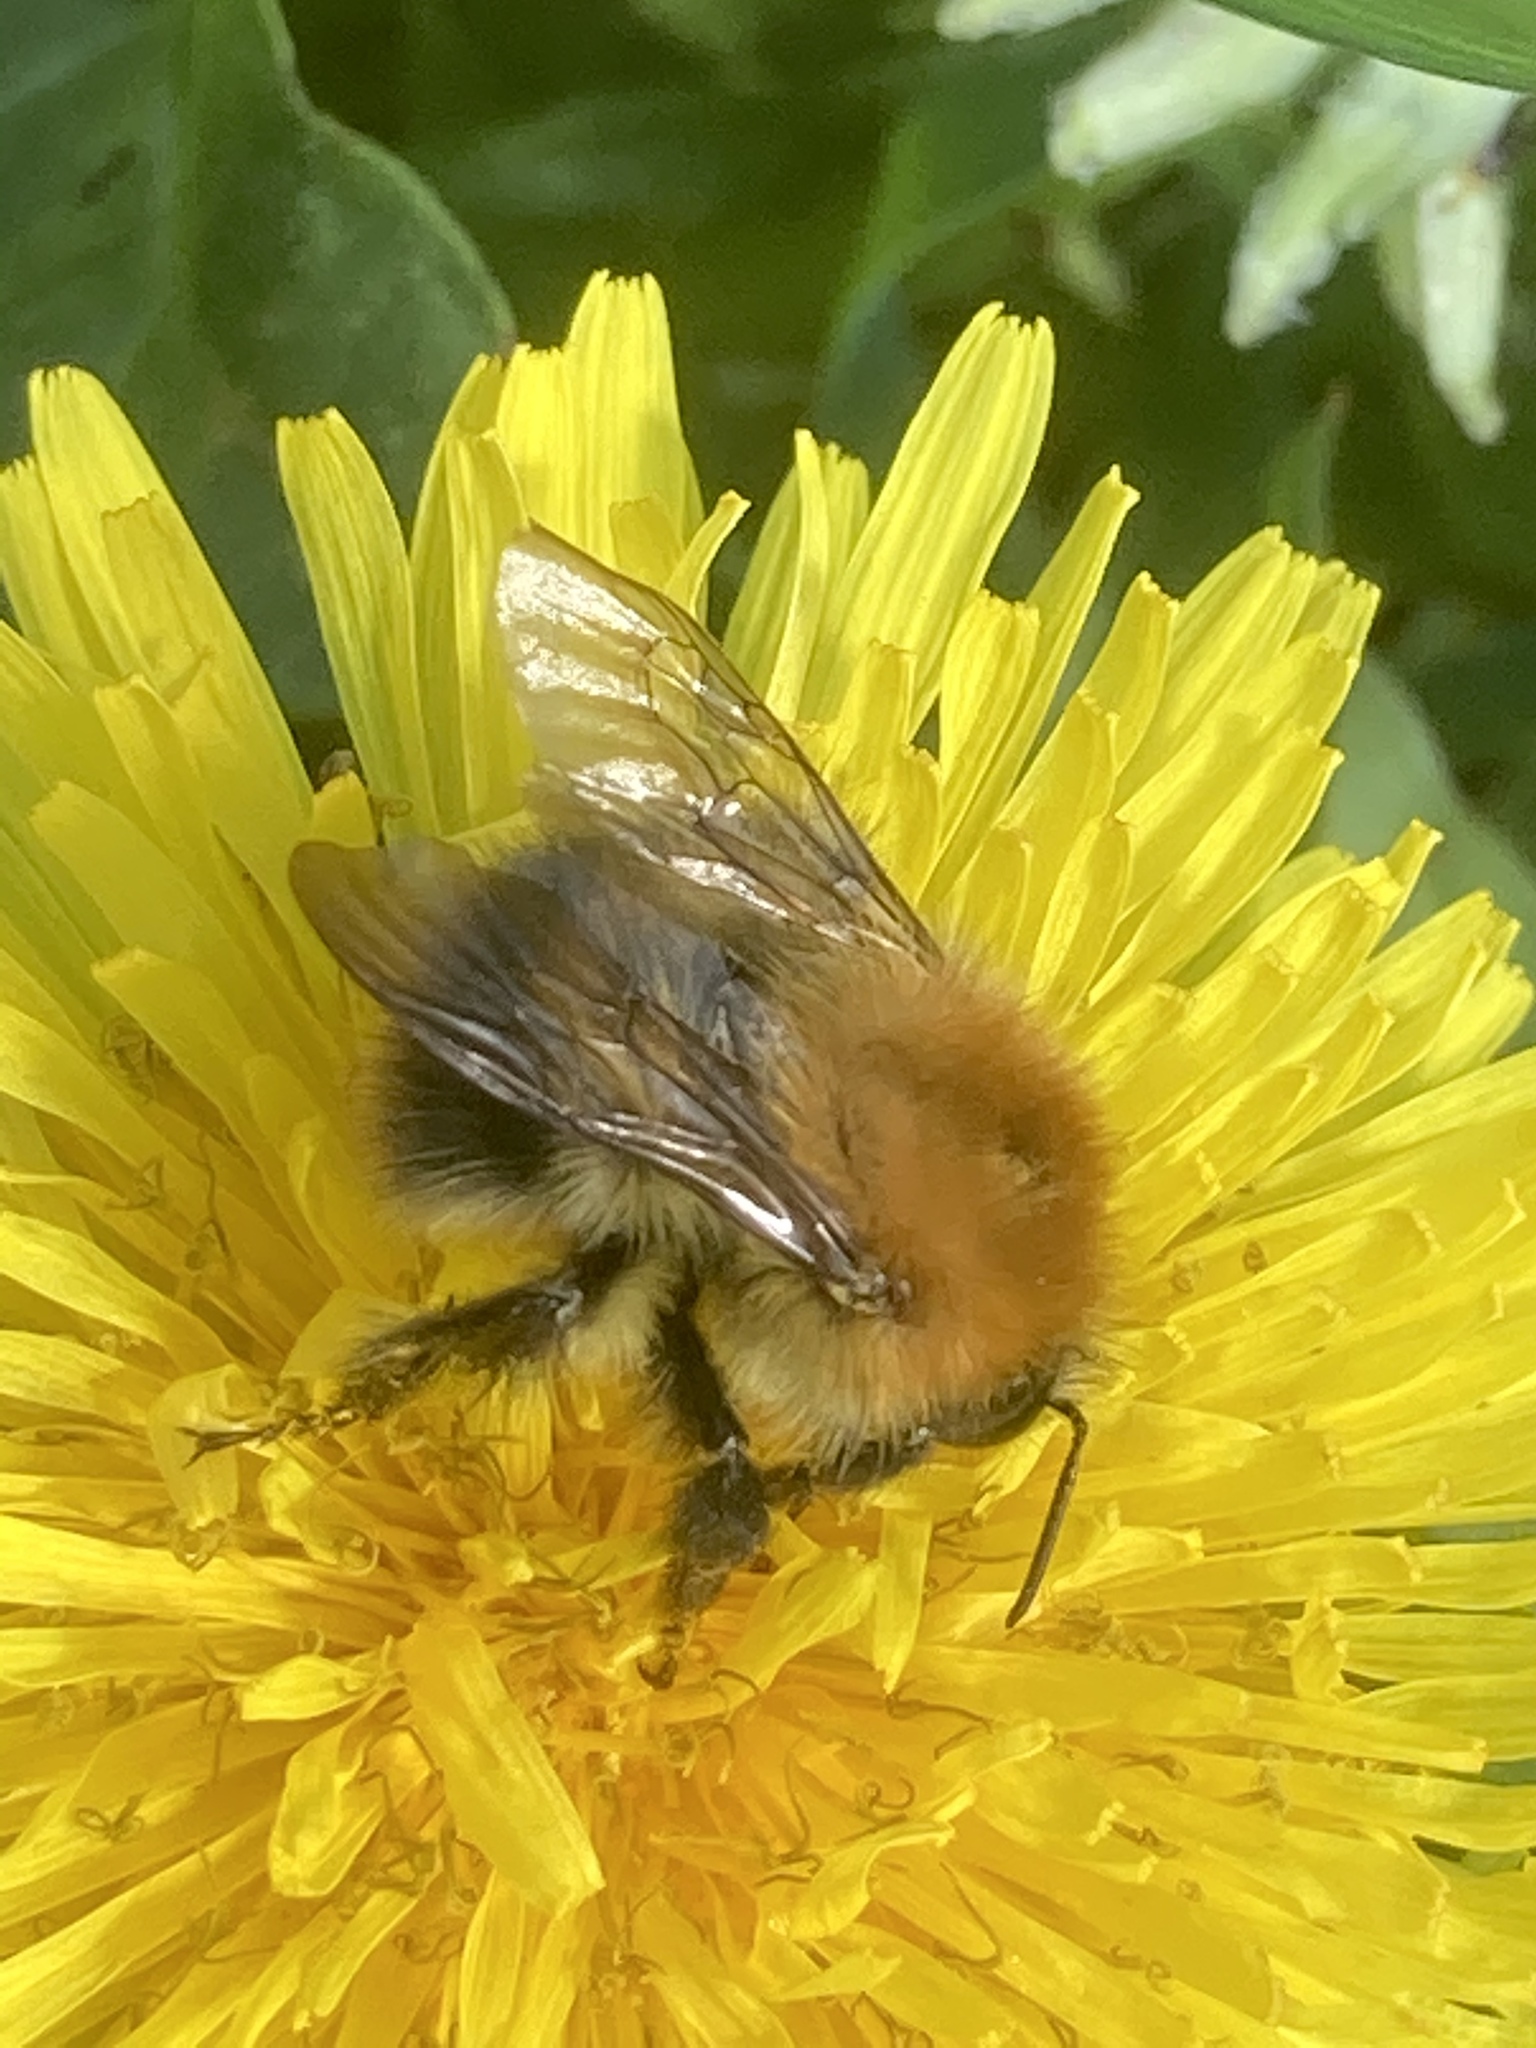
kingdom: Animalia
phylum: Arthropoda
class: Insecta
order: Hymenoptera
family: Apidae
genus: Bombus
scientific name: Bombus pascuorum
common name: Common carder bee
